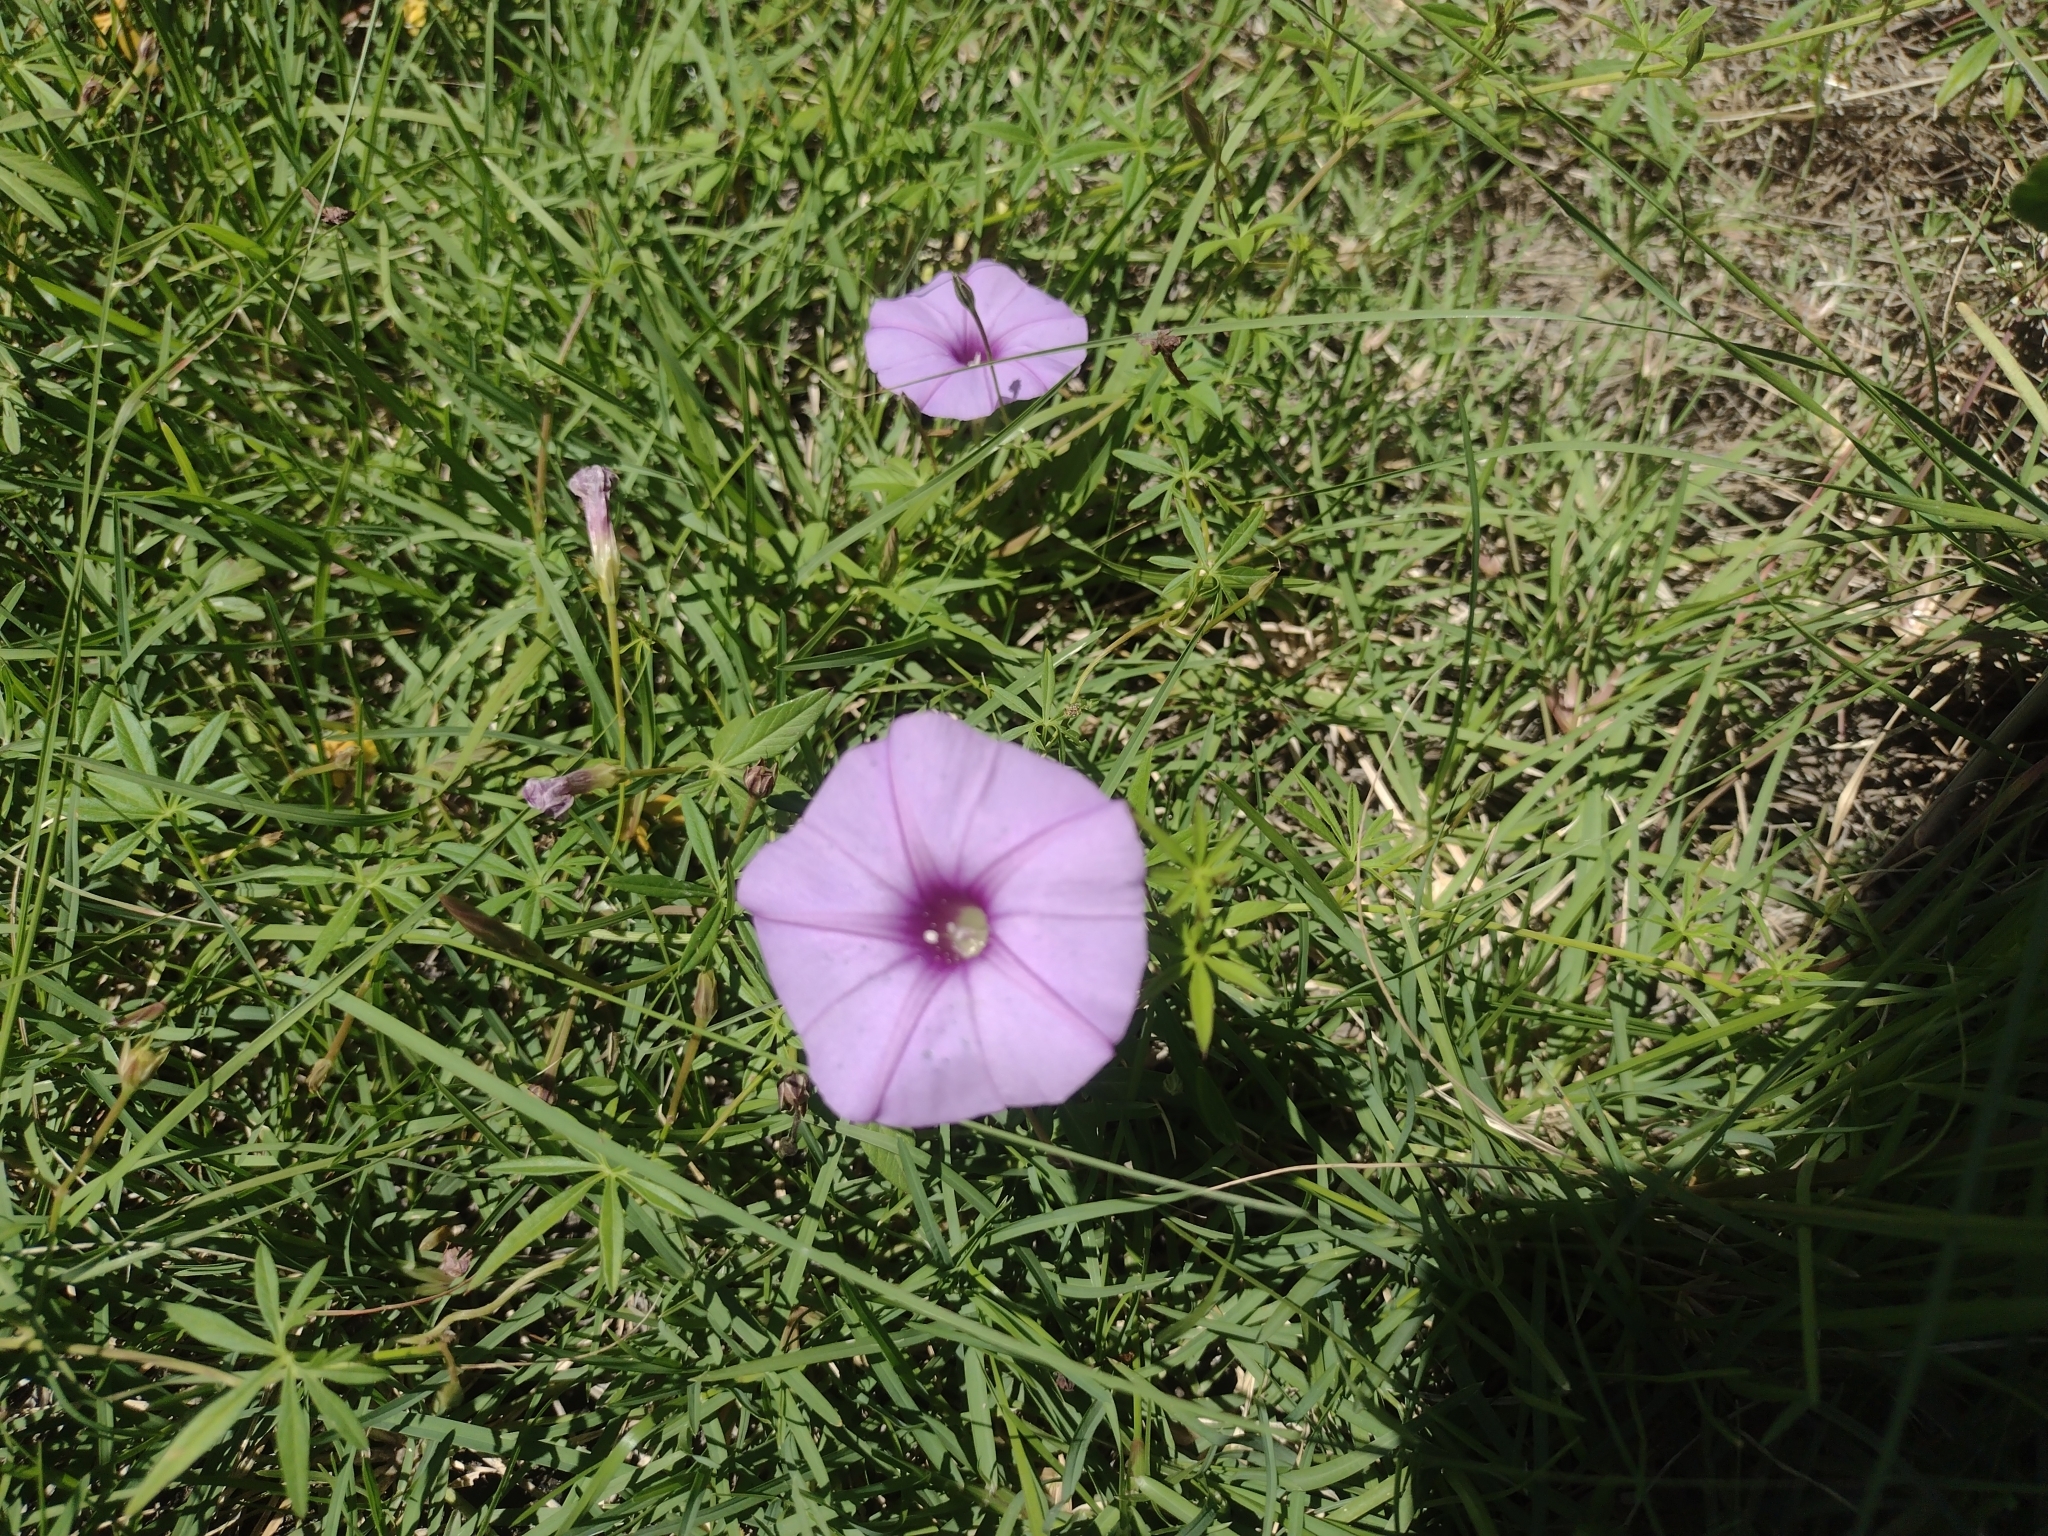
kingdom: Plantae
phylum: Tracheophyta
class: Magnoliopsida
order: Solanales
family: Convolvulaceae
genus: Ipomoea
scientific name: Ipomoea ternifolia
